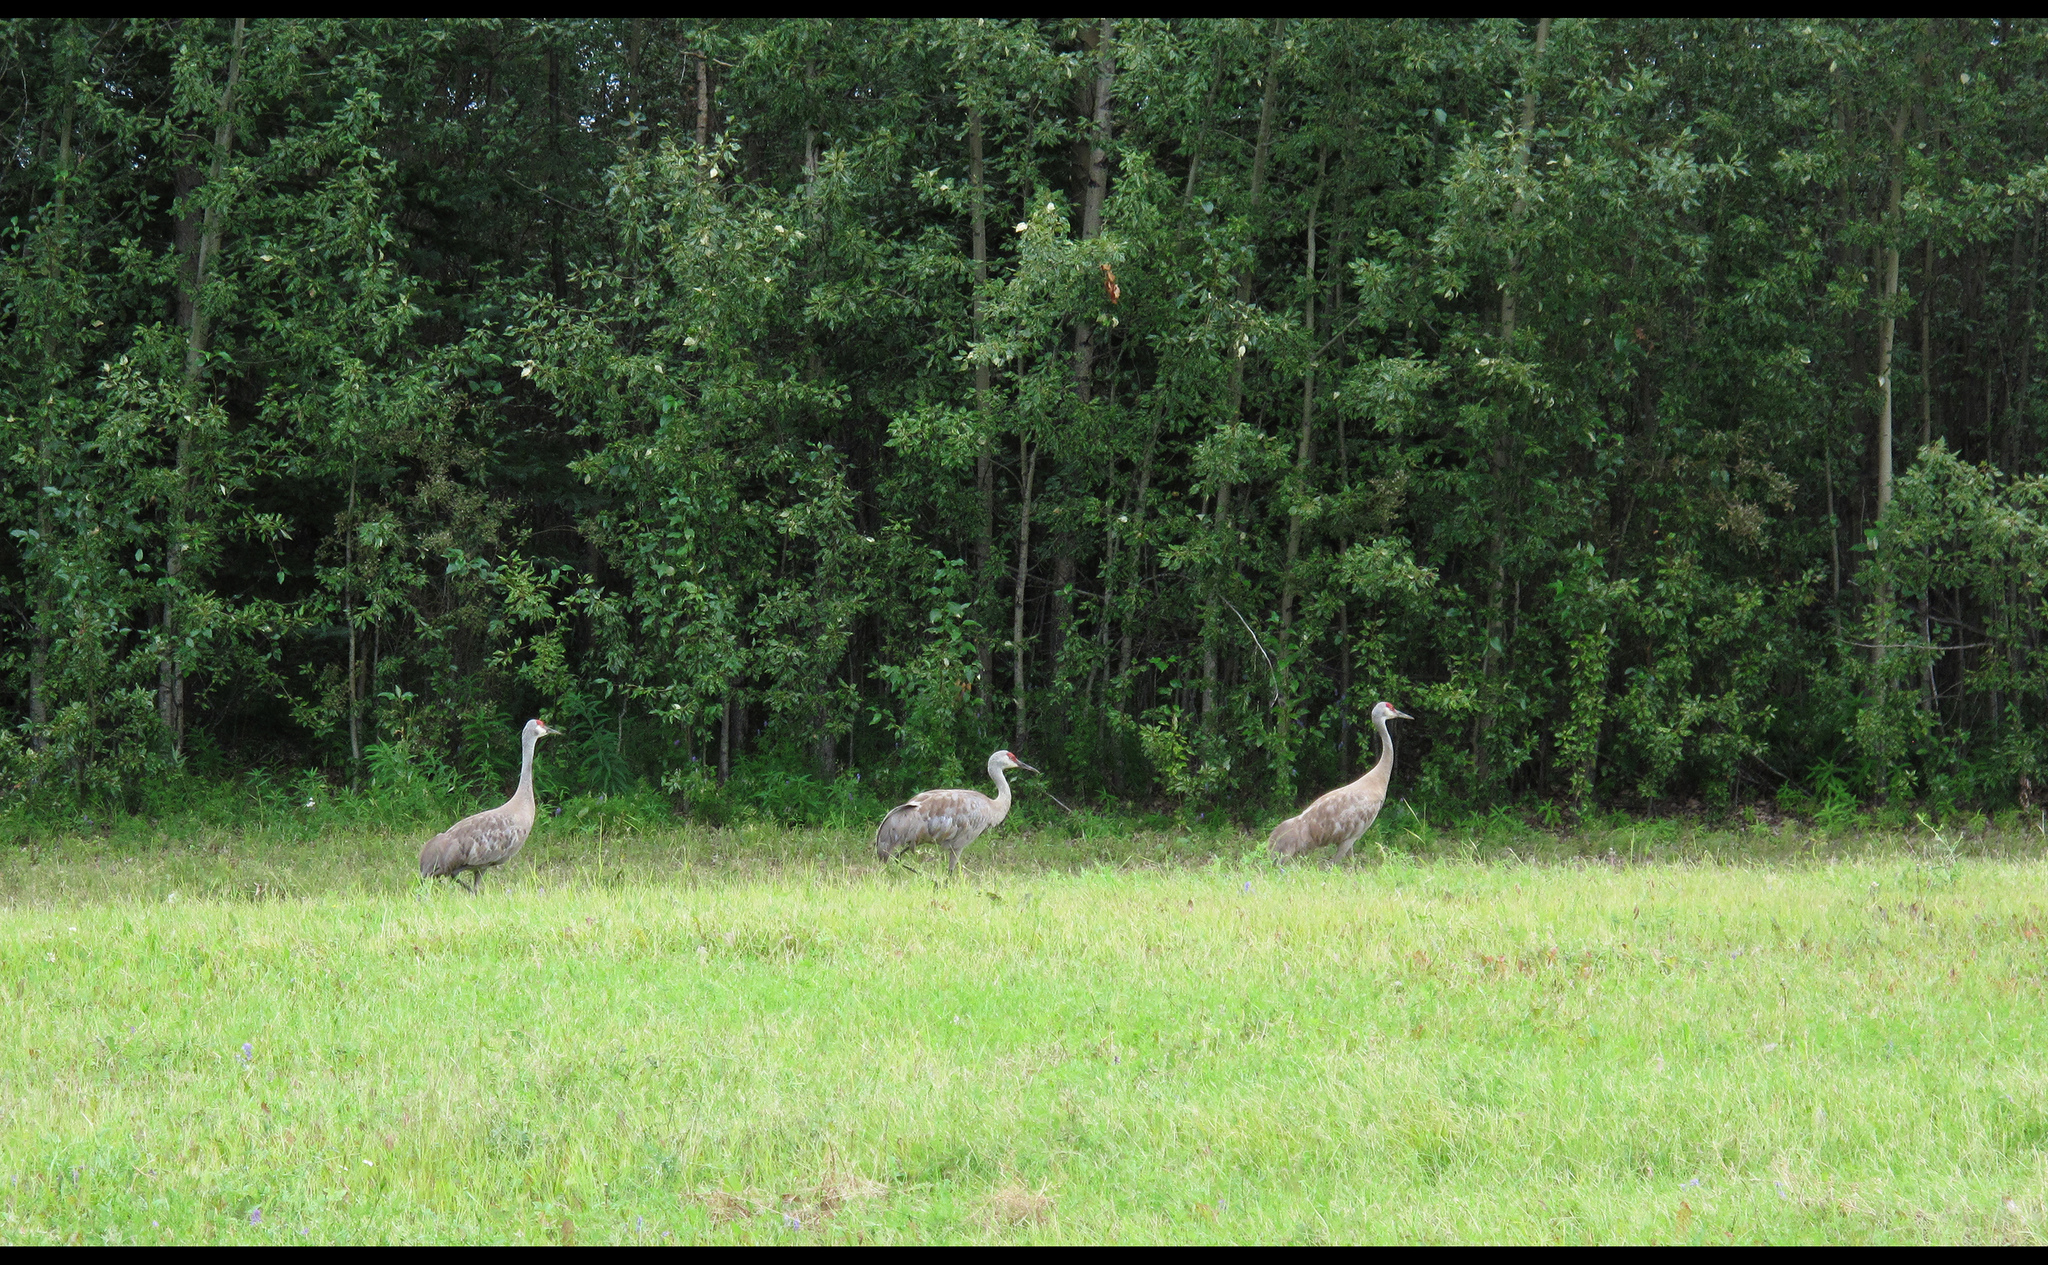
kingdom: Animalia
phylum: Chordata
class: Aves
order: Gruiformes
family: Gruidae
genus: Grus
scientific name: Grus canadensis
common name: Sandhill crane
